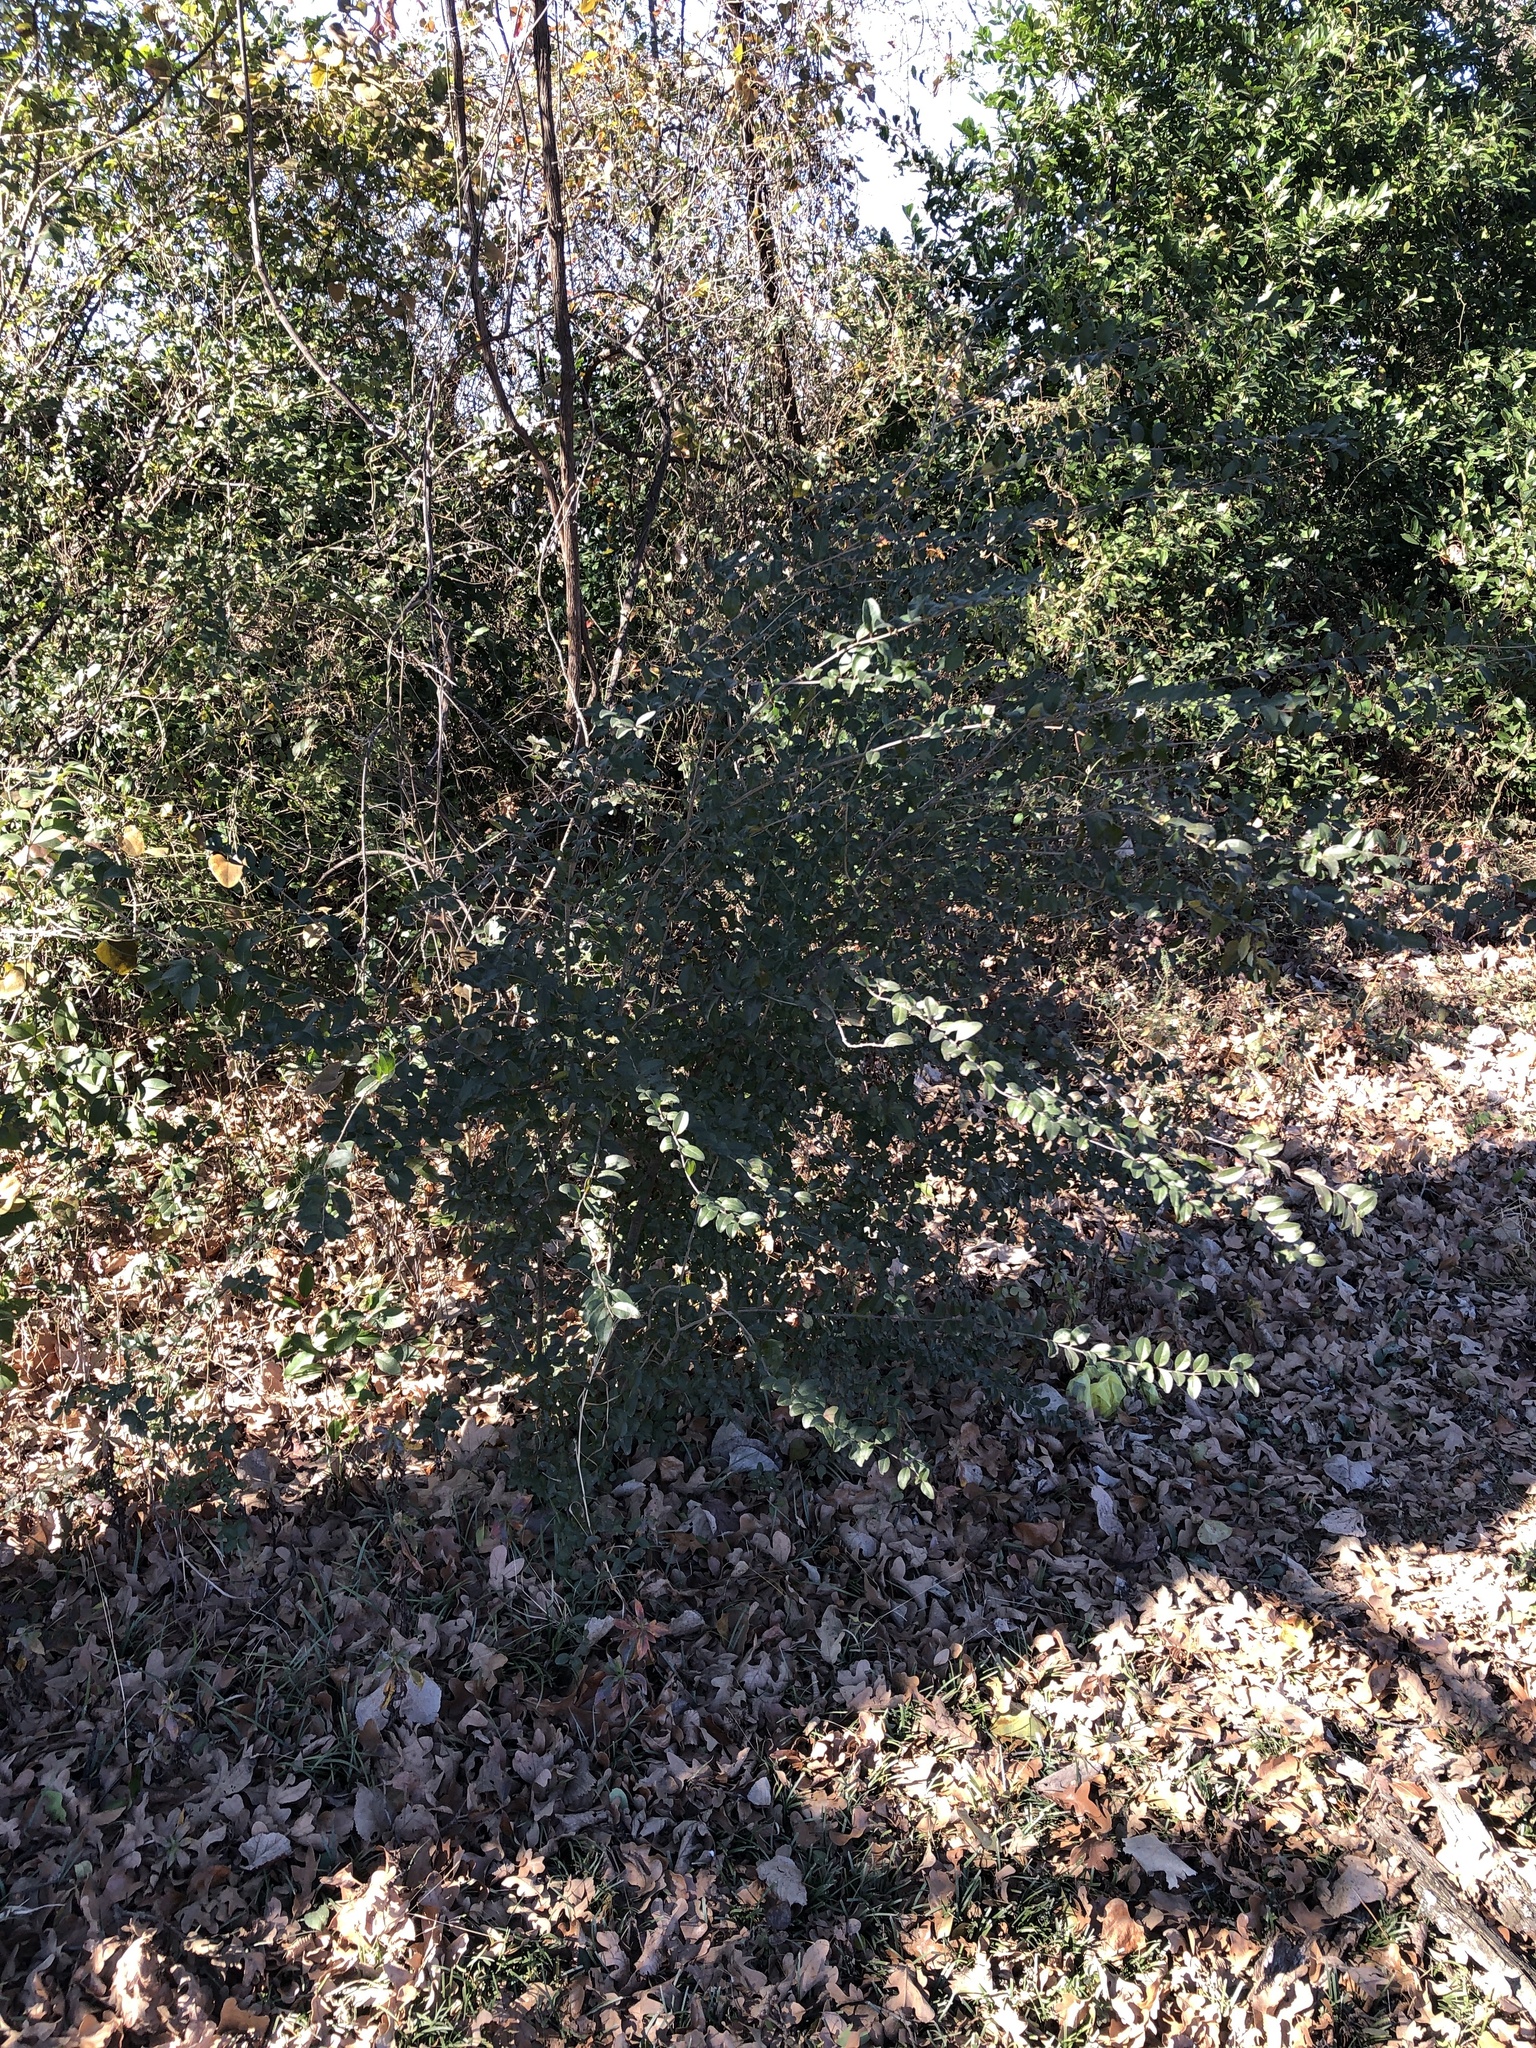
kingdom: Plantae
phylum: Tracheophyta
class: Magnoliopsida
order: Lamiales
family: Oleaceae
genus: Ligustrum
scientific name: Ligustrum sinense
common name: Chinese privet
